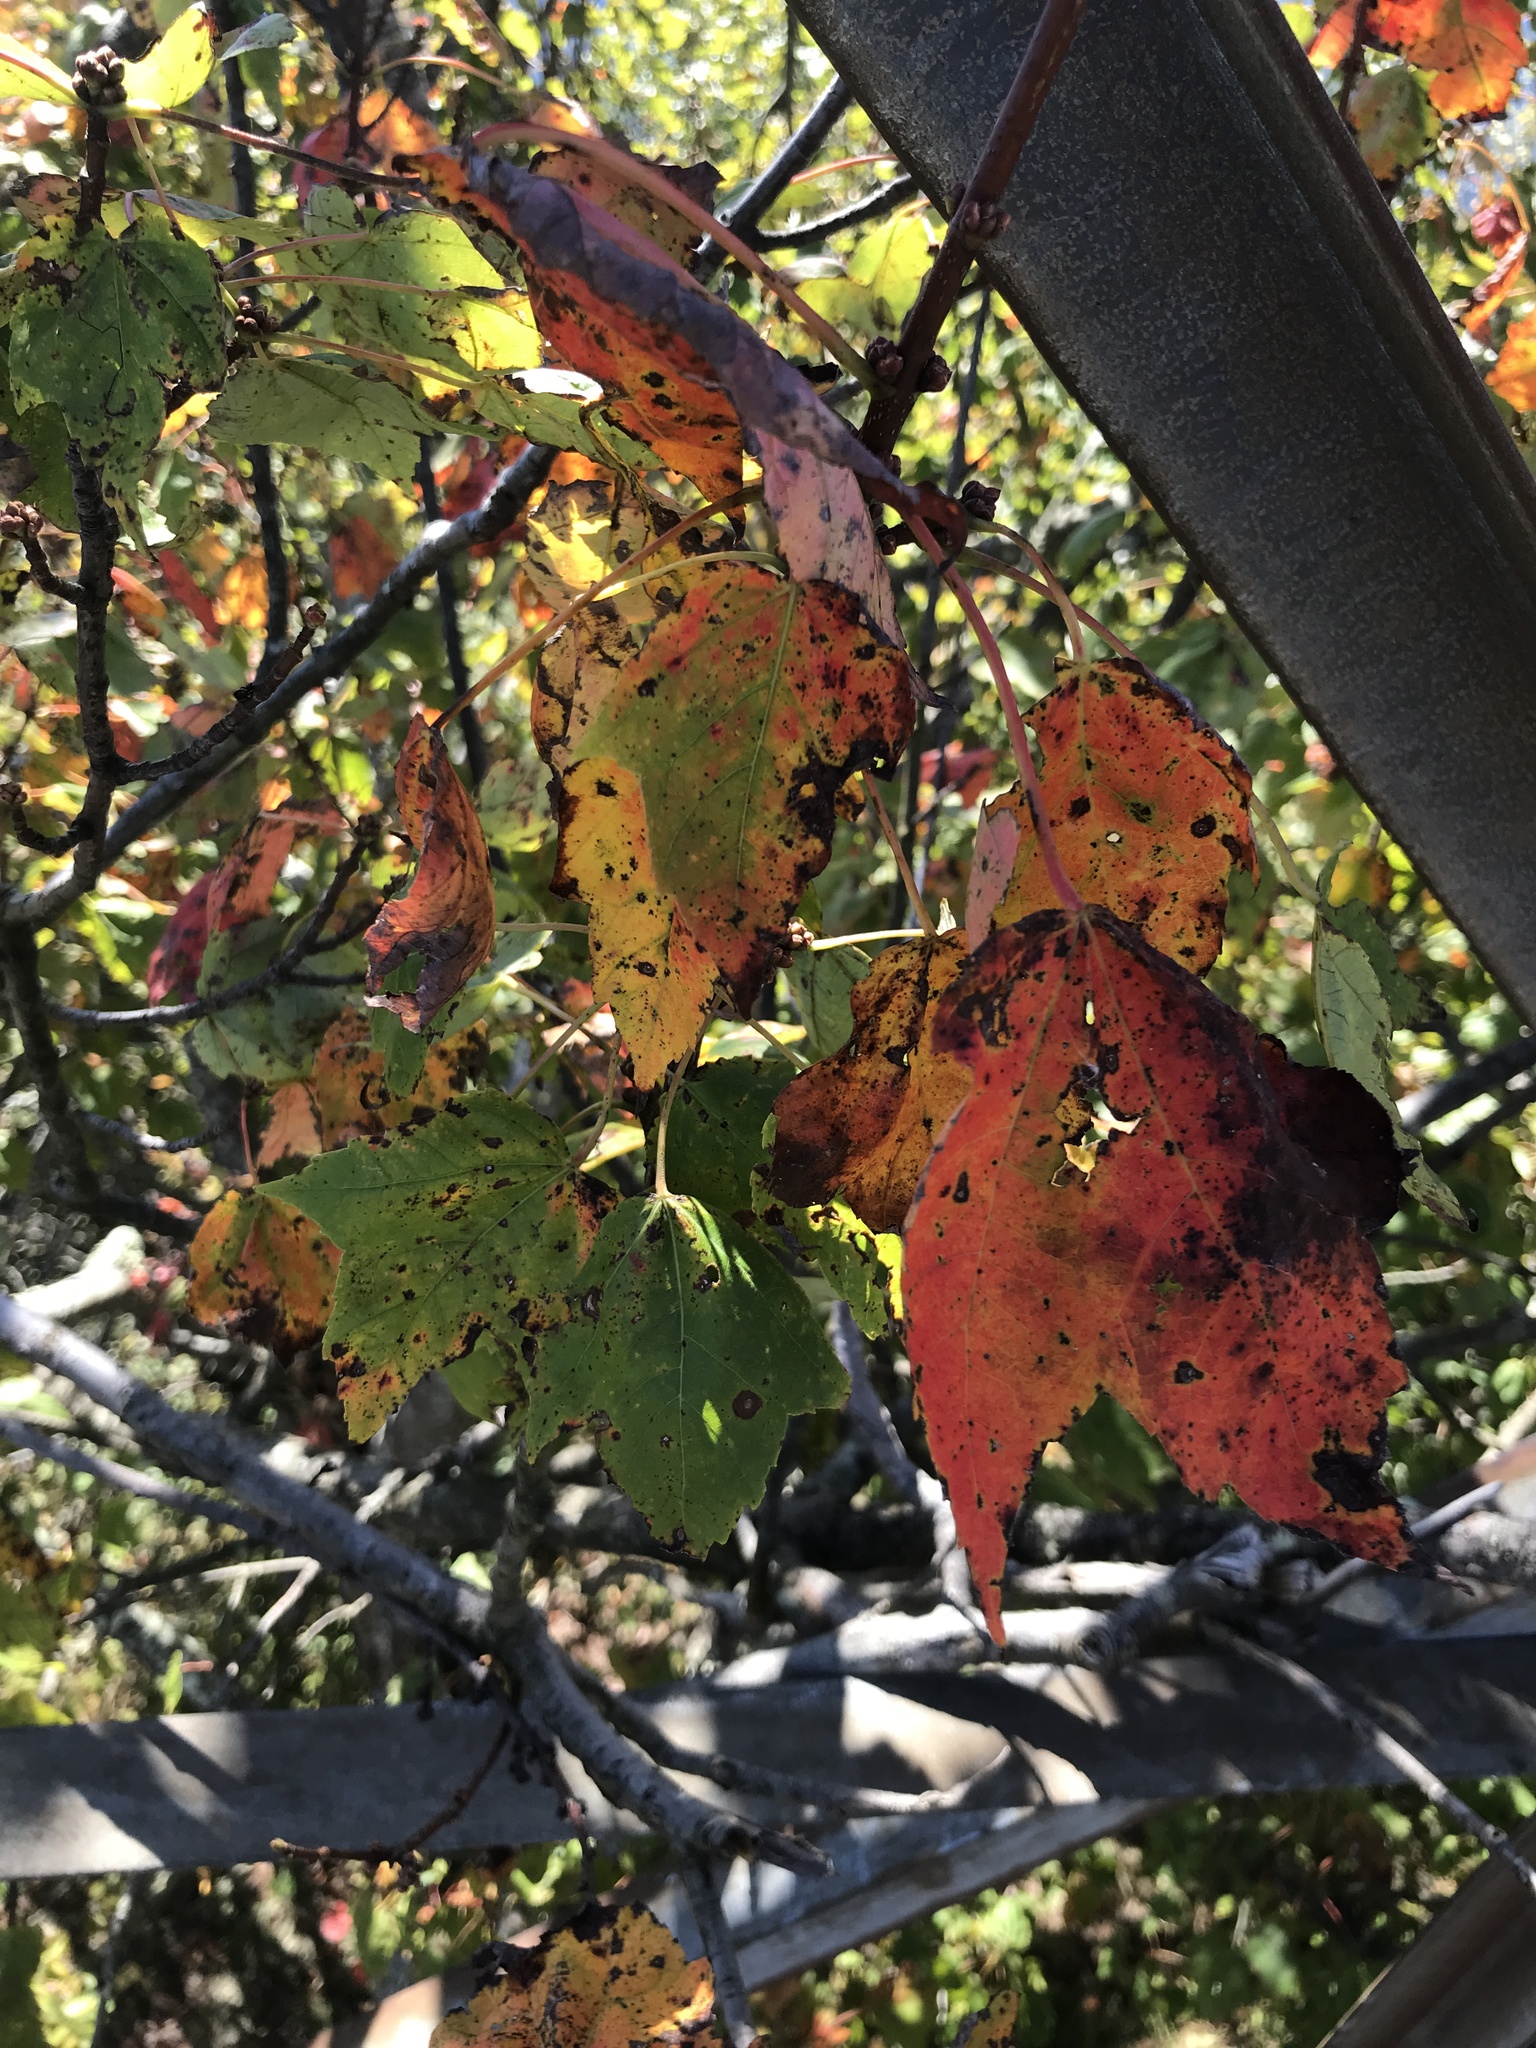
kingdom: Plantae
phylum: Tracheophyta
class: Magnoliopsida
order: Sapindales
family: Sapindaceae
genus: Acer
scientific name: Acer rubrum
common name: Red maple
